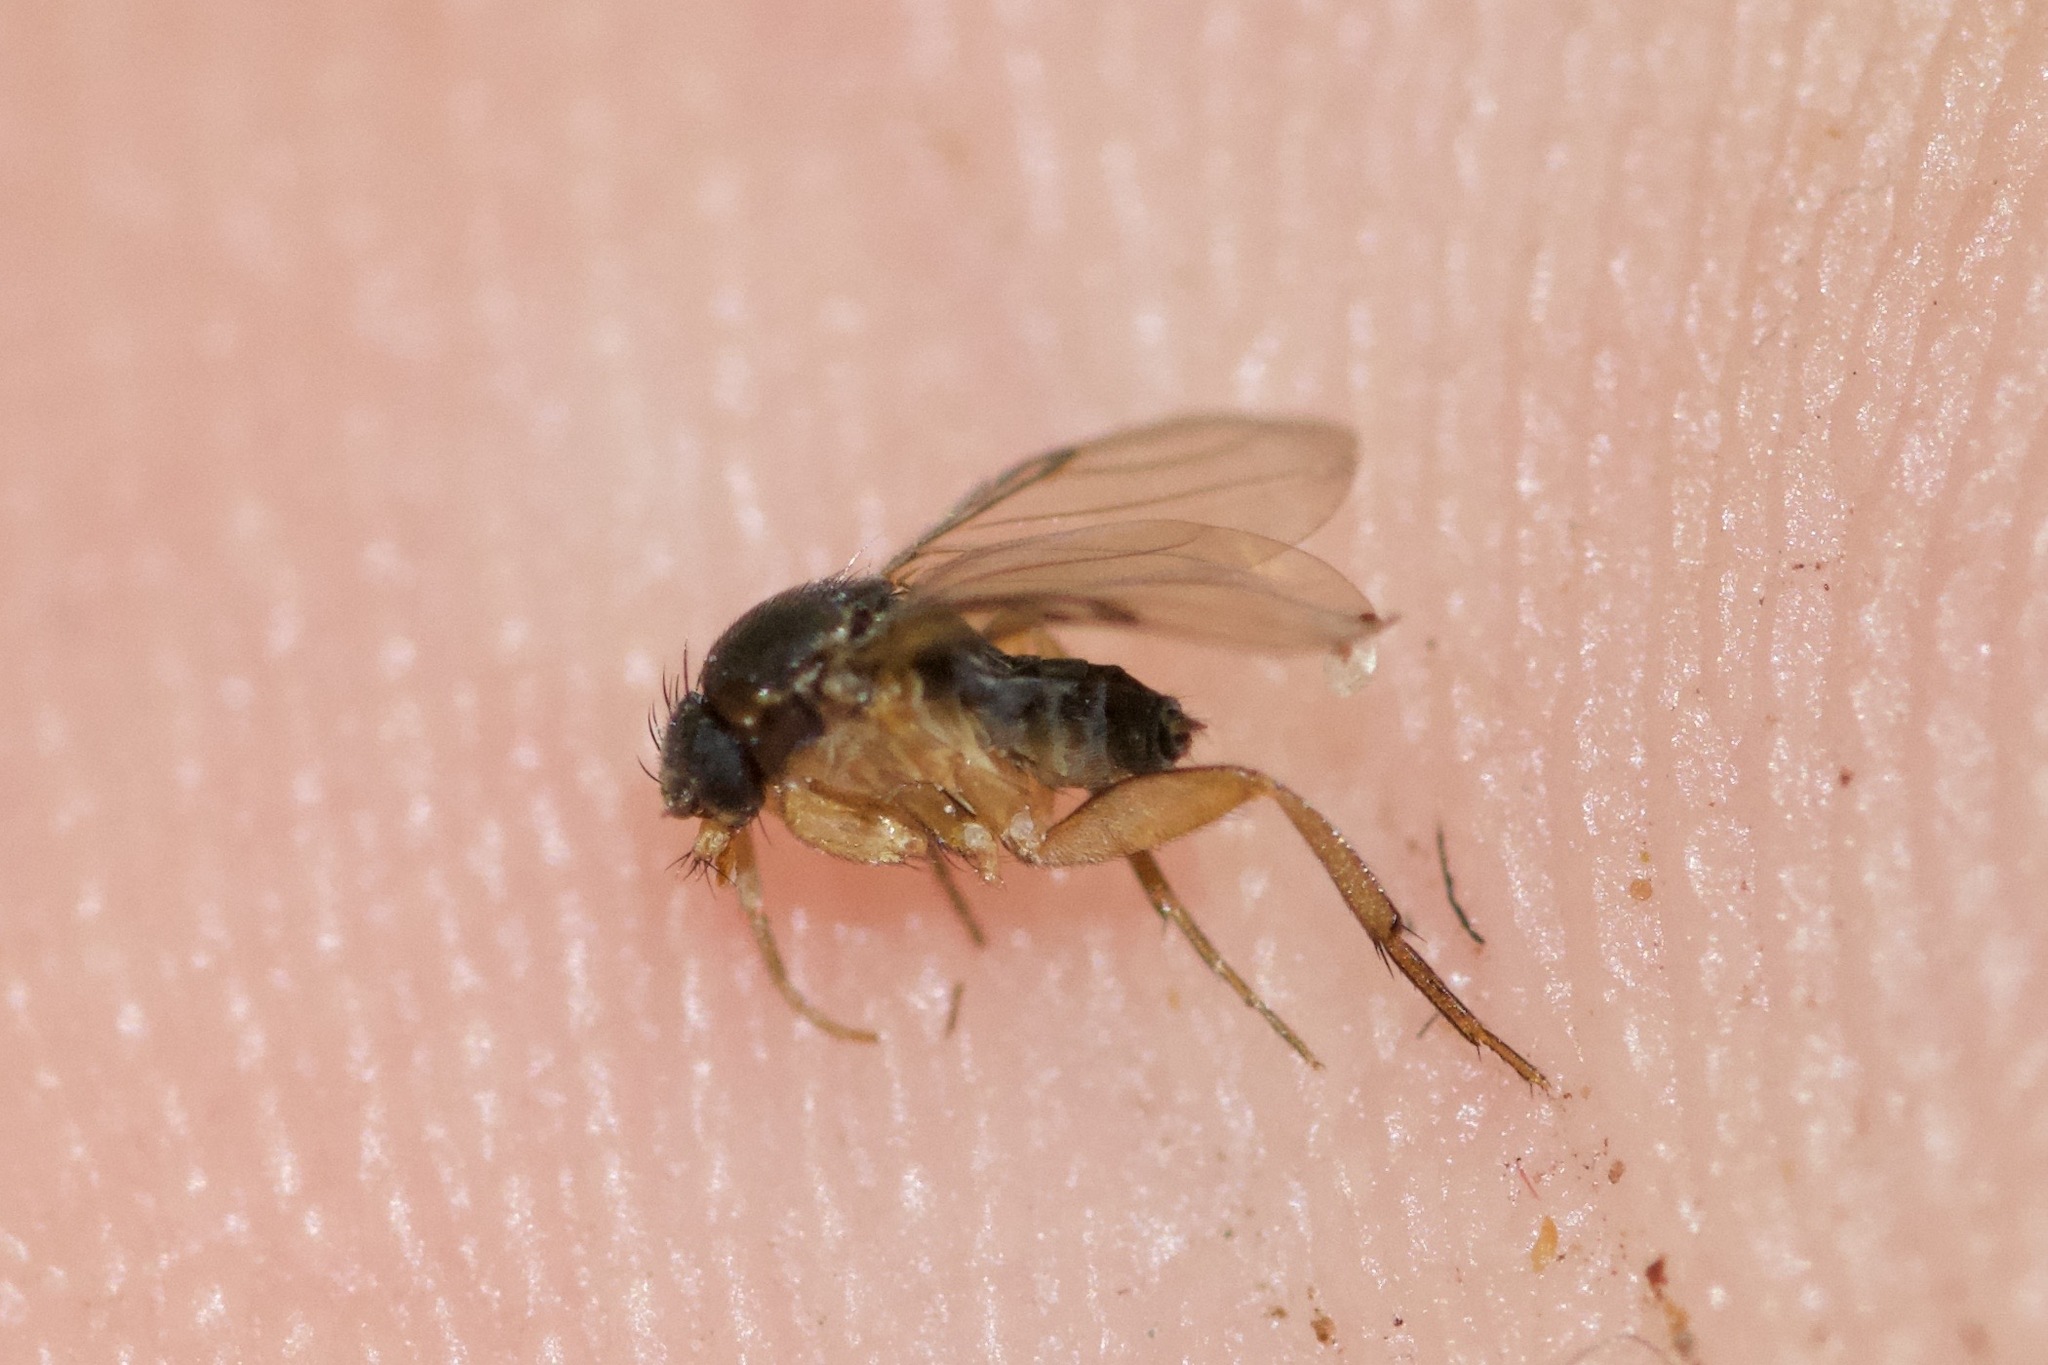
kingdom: Animalia
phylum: Arthropoda
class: Insecta
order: Diptera
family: Phoridae
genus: Dohrniphora
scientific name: Dohrniphora incisuralis
